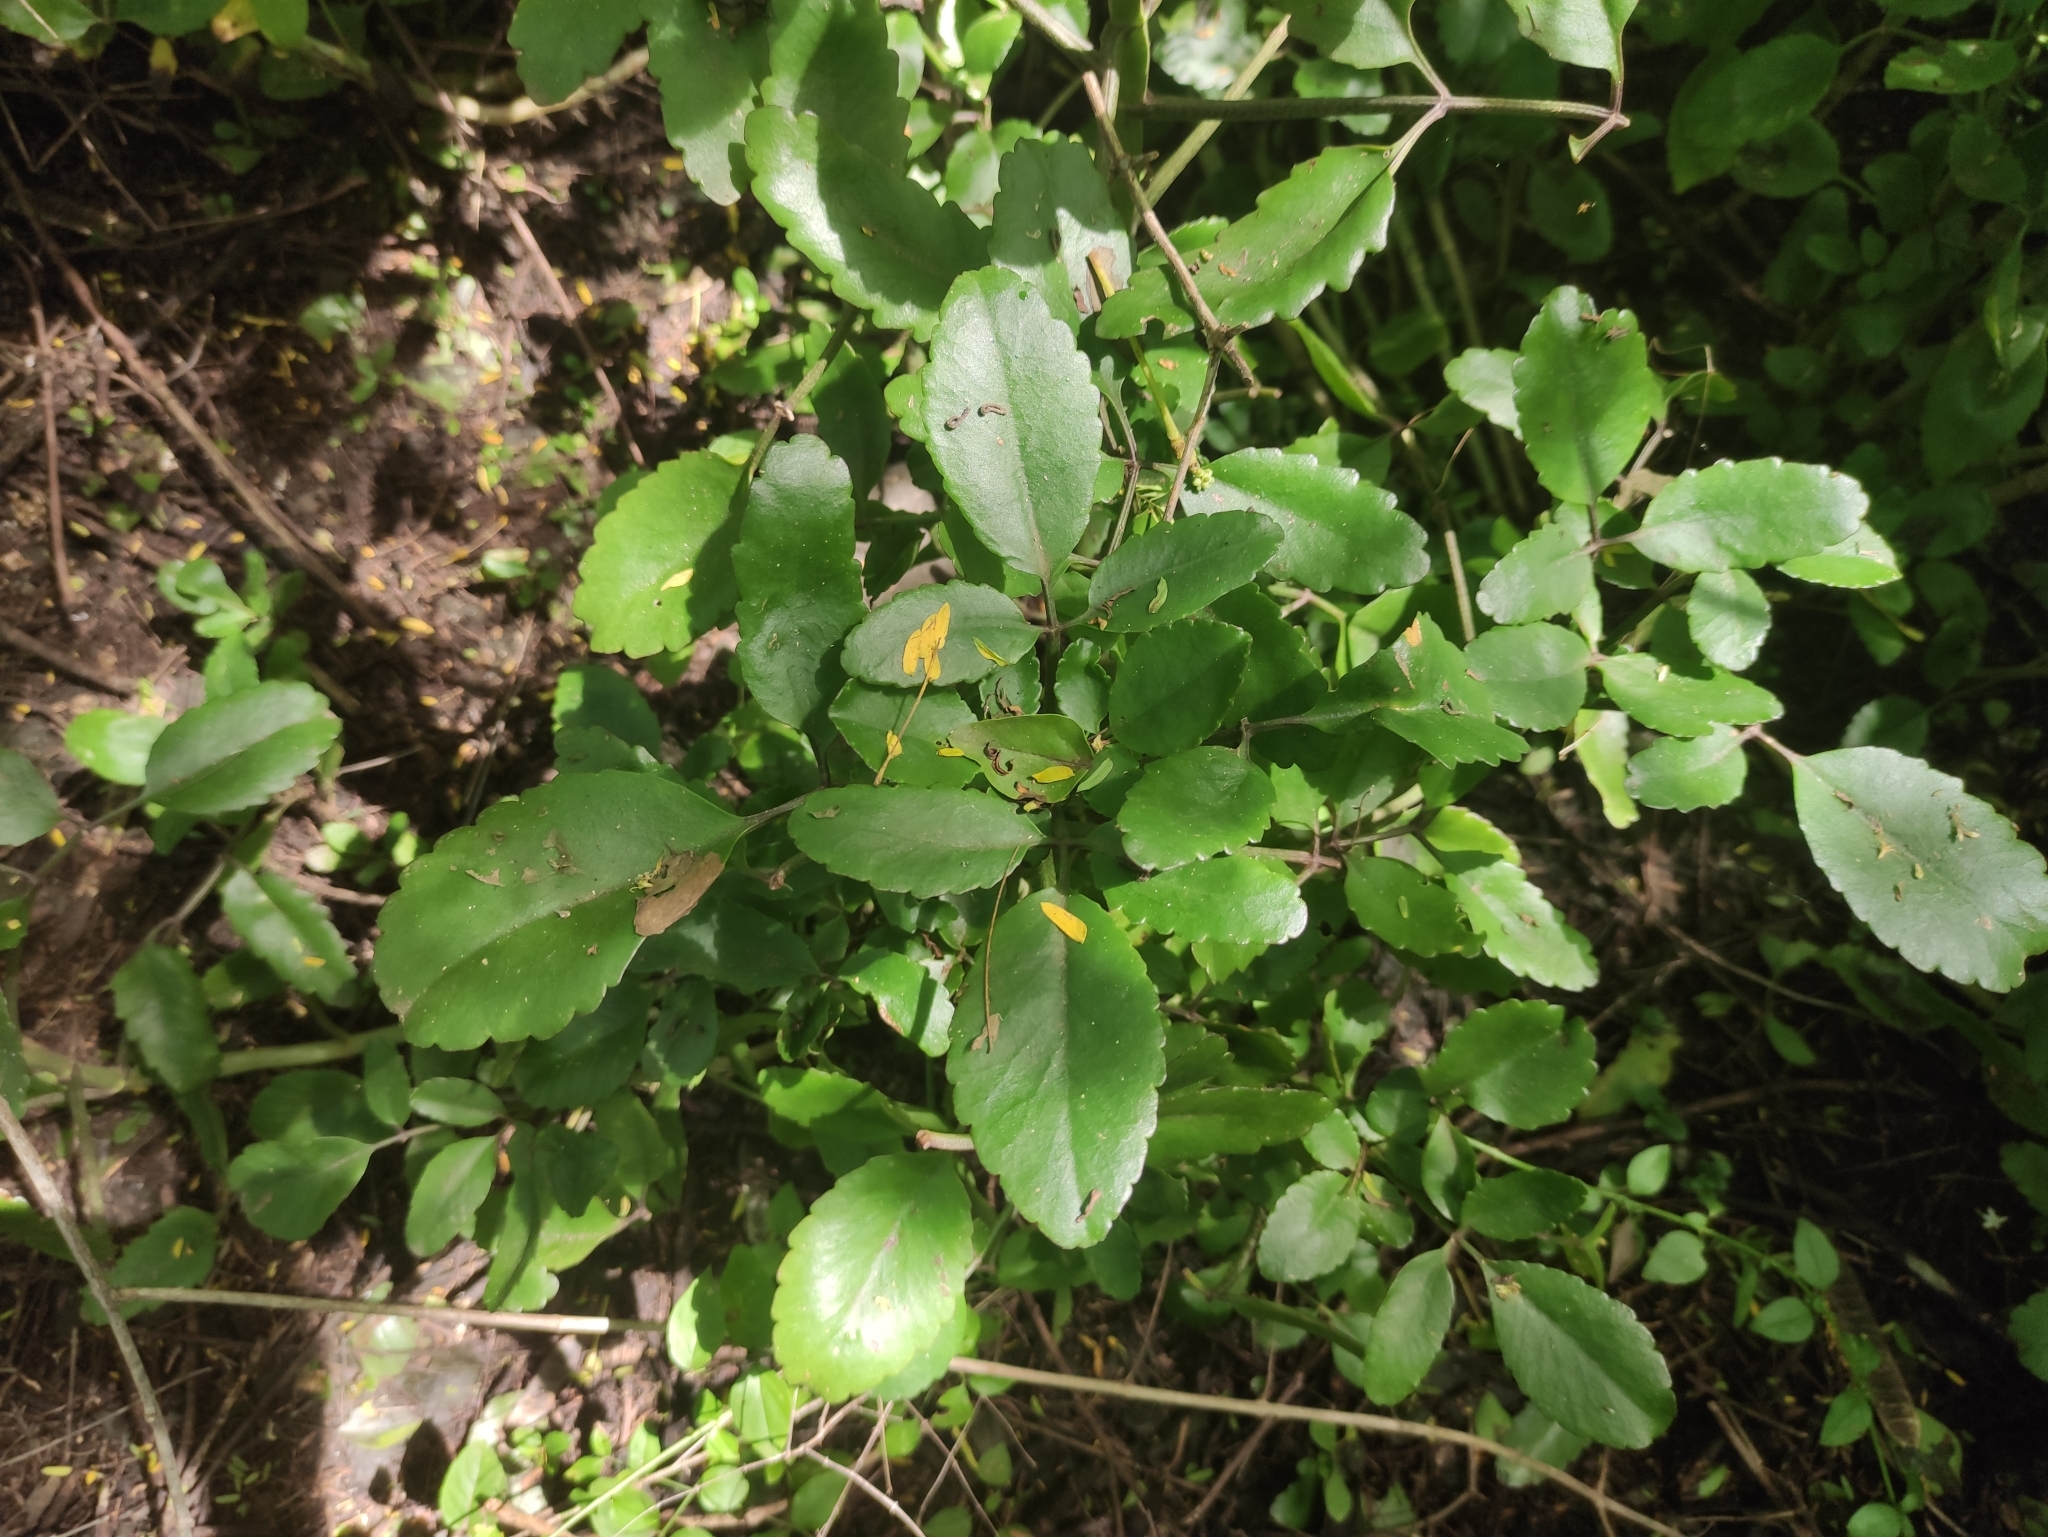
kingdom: Plantae
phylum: Tracheophyta
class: Magnoliopsida
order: Saxifragales
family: Crassulaceae
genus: Kalanchoe
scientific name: Kalanchoe pinnata
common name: Cathedral bells
